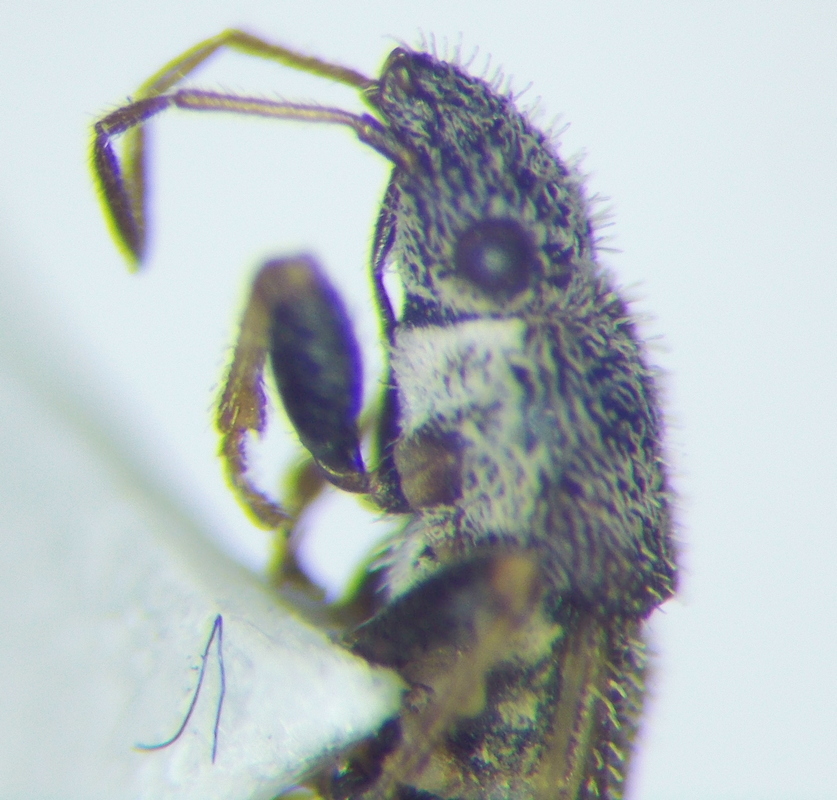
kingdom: Animalia
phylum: Arthropoda
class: Insecta
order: Hemiptera
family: Oxycarenidae
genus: Camptotelus
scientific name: Camptotelus lineolatus
